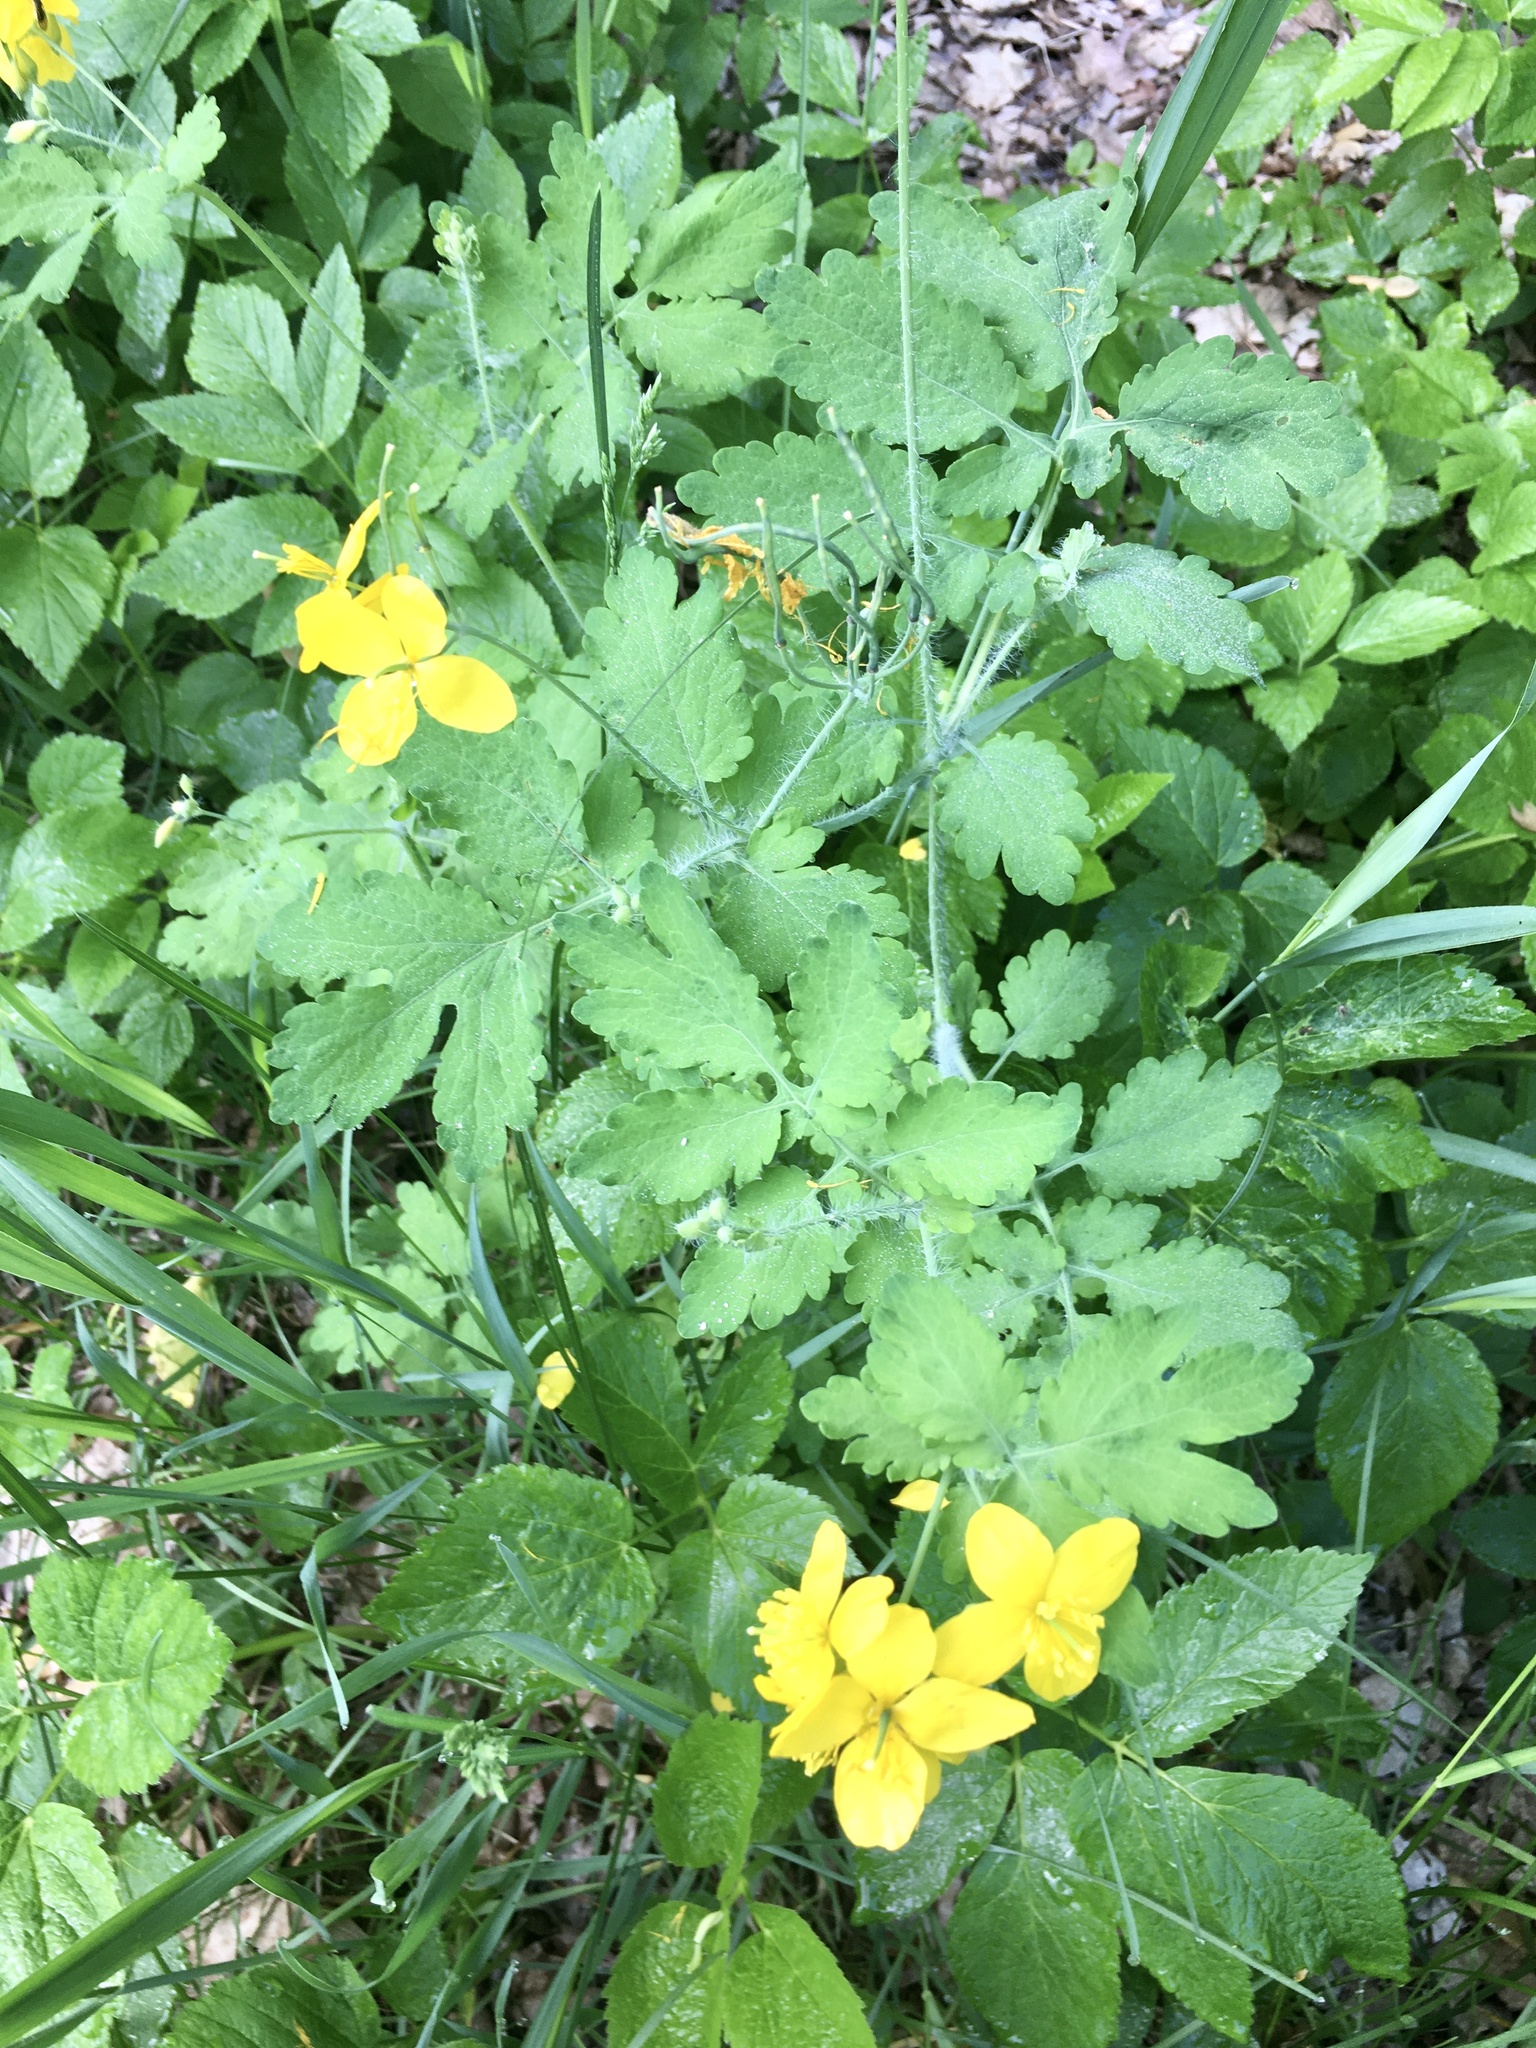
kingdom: Plantae
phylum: Tracheophyta
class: Magnoliopsida
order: Ranunculales
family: Papaveraceae
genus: Chelidonium
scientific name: Chelidonium majus
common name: Greater celandine
